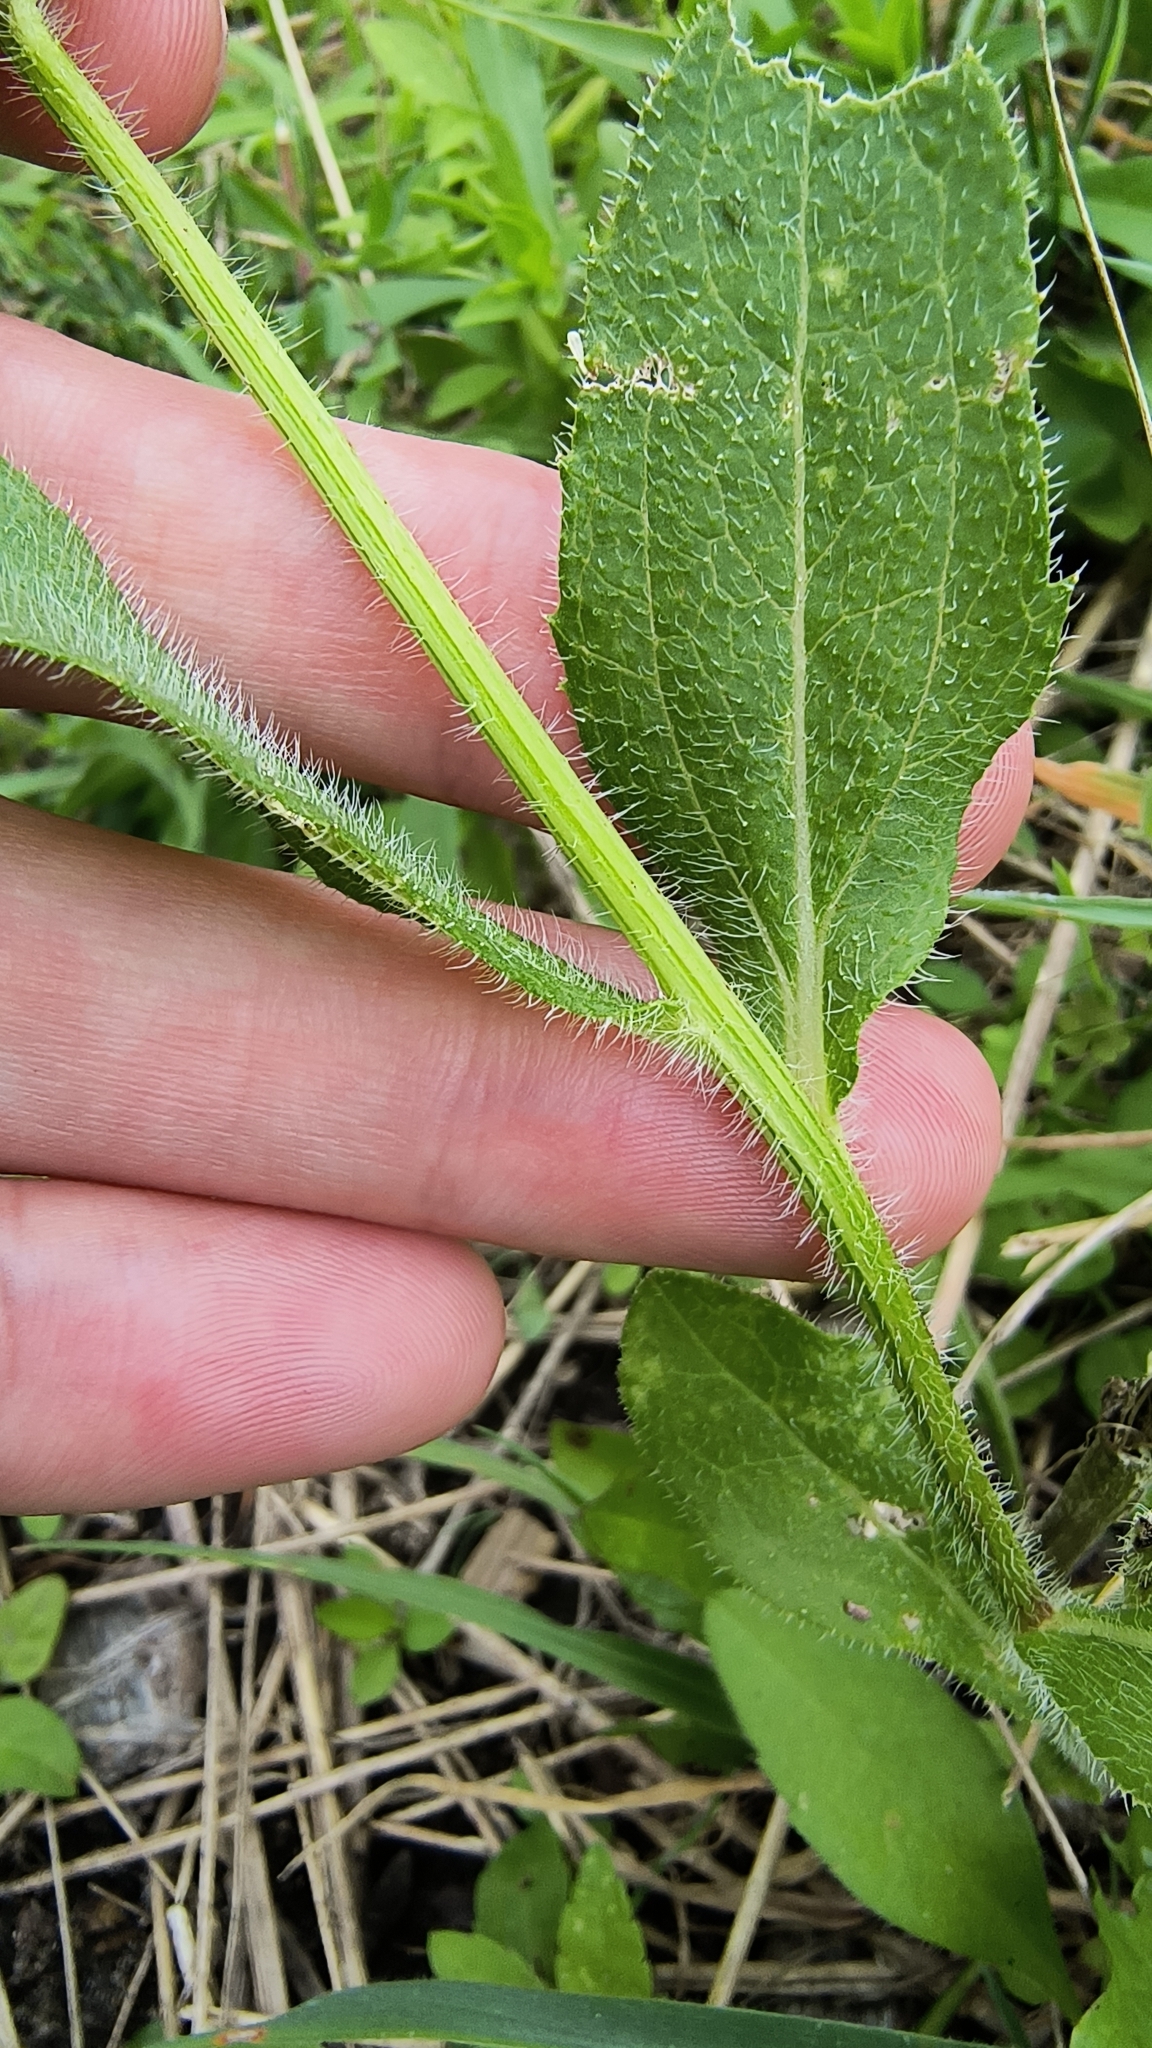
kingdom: Plantae
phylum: Tracheophyta
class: Magnoliopsida
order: Asterales
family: Asteraceae
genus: Rudbeckia
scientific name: Rudbeckia hirta
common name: Black-eyed-susan
